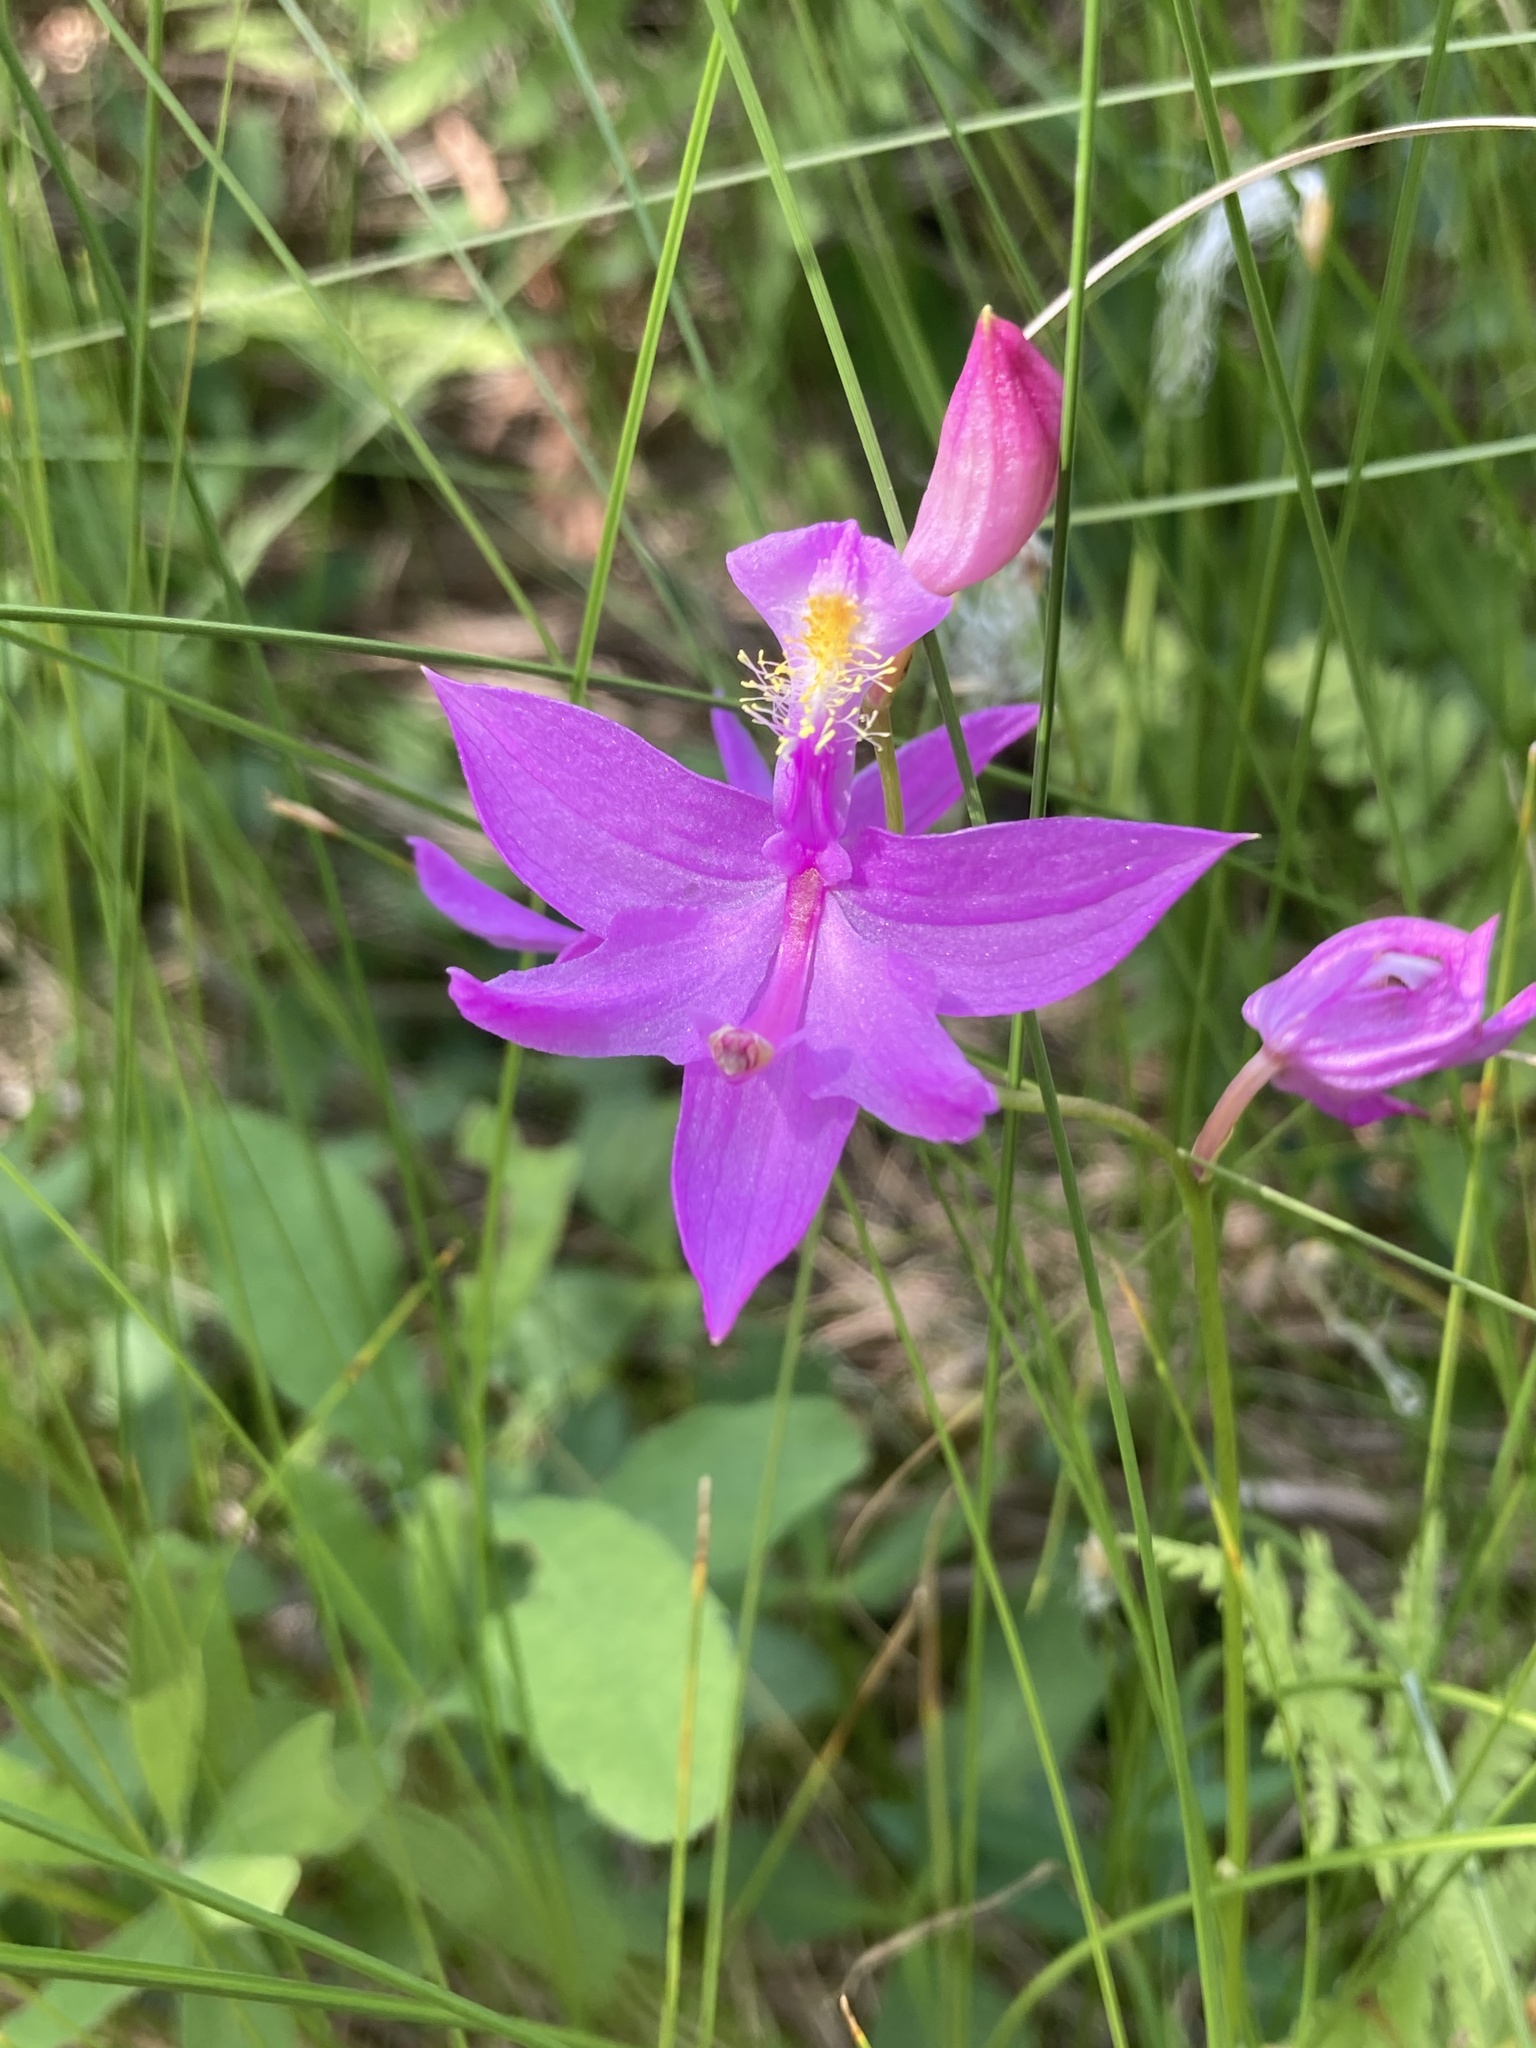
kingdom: Plantae
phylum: Tracheophyta
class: Liliopsida
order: Asparagales
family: Orchidaceae
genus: Calopogon
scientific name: Calopogon tuberosus
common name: Grass-pink
